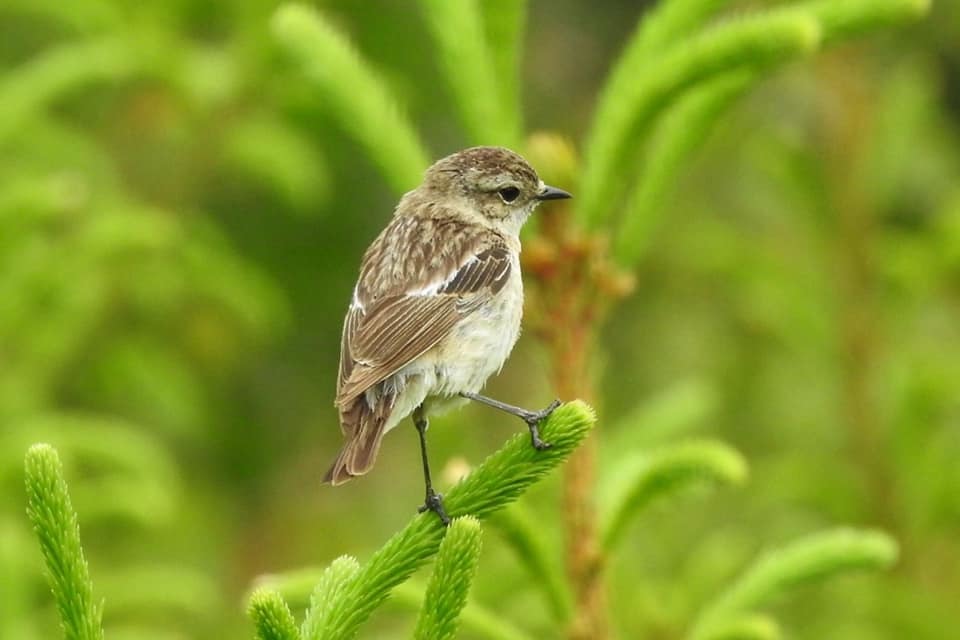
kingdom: Animalia
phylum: Chordata
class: Aves
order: Passeriformes
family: Muscicapidae
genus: Saxicola
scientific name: Saxicola rubetra
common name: Whinchat
